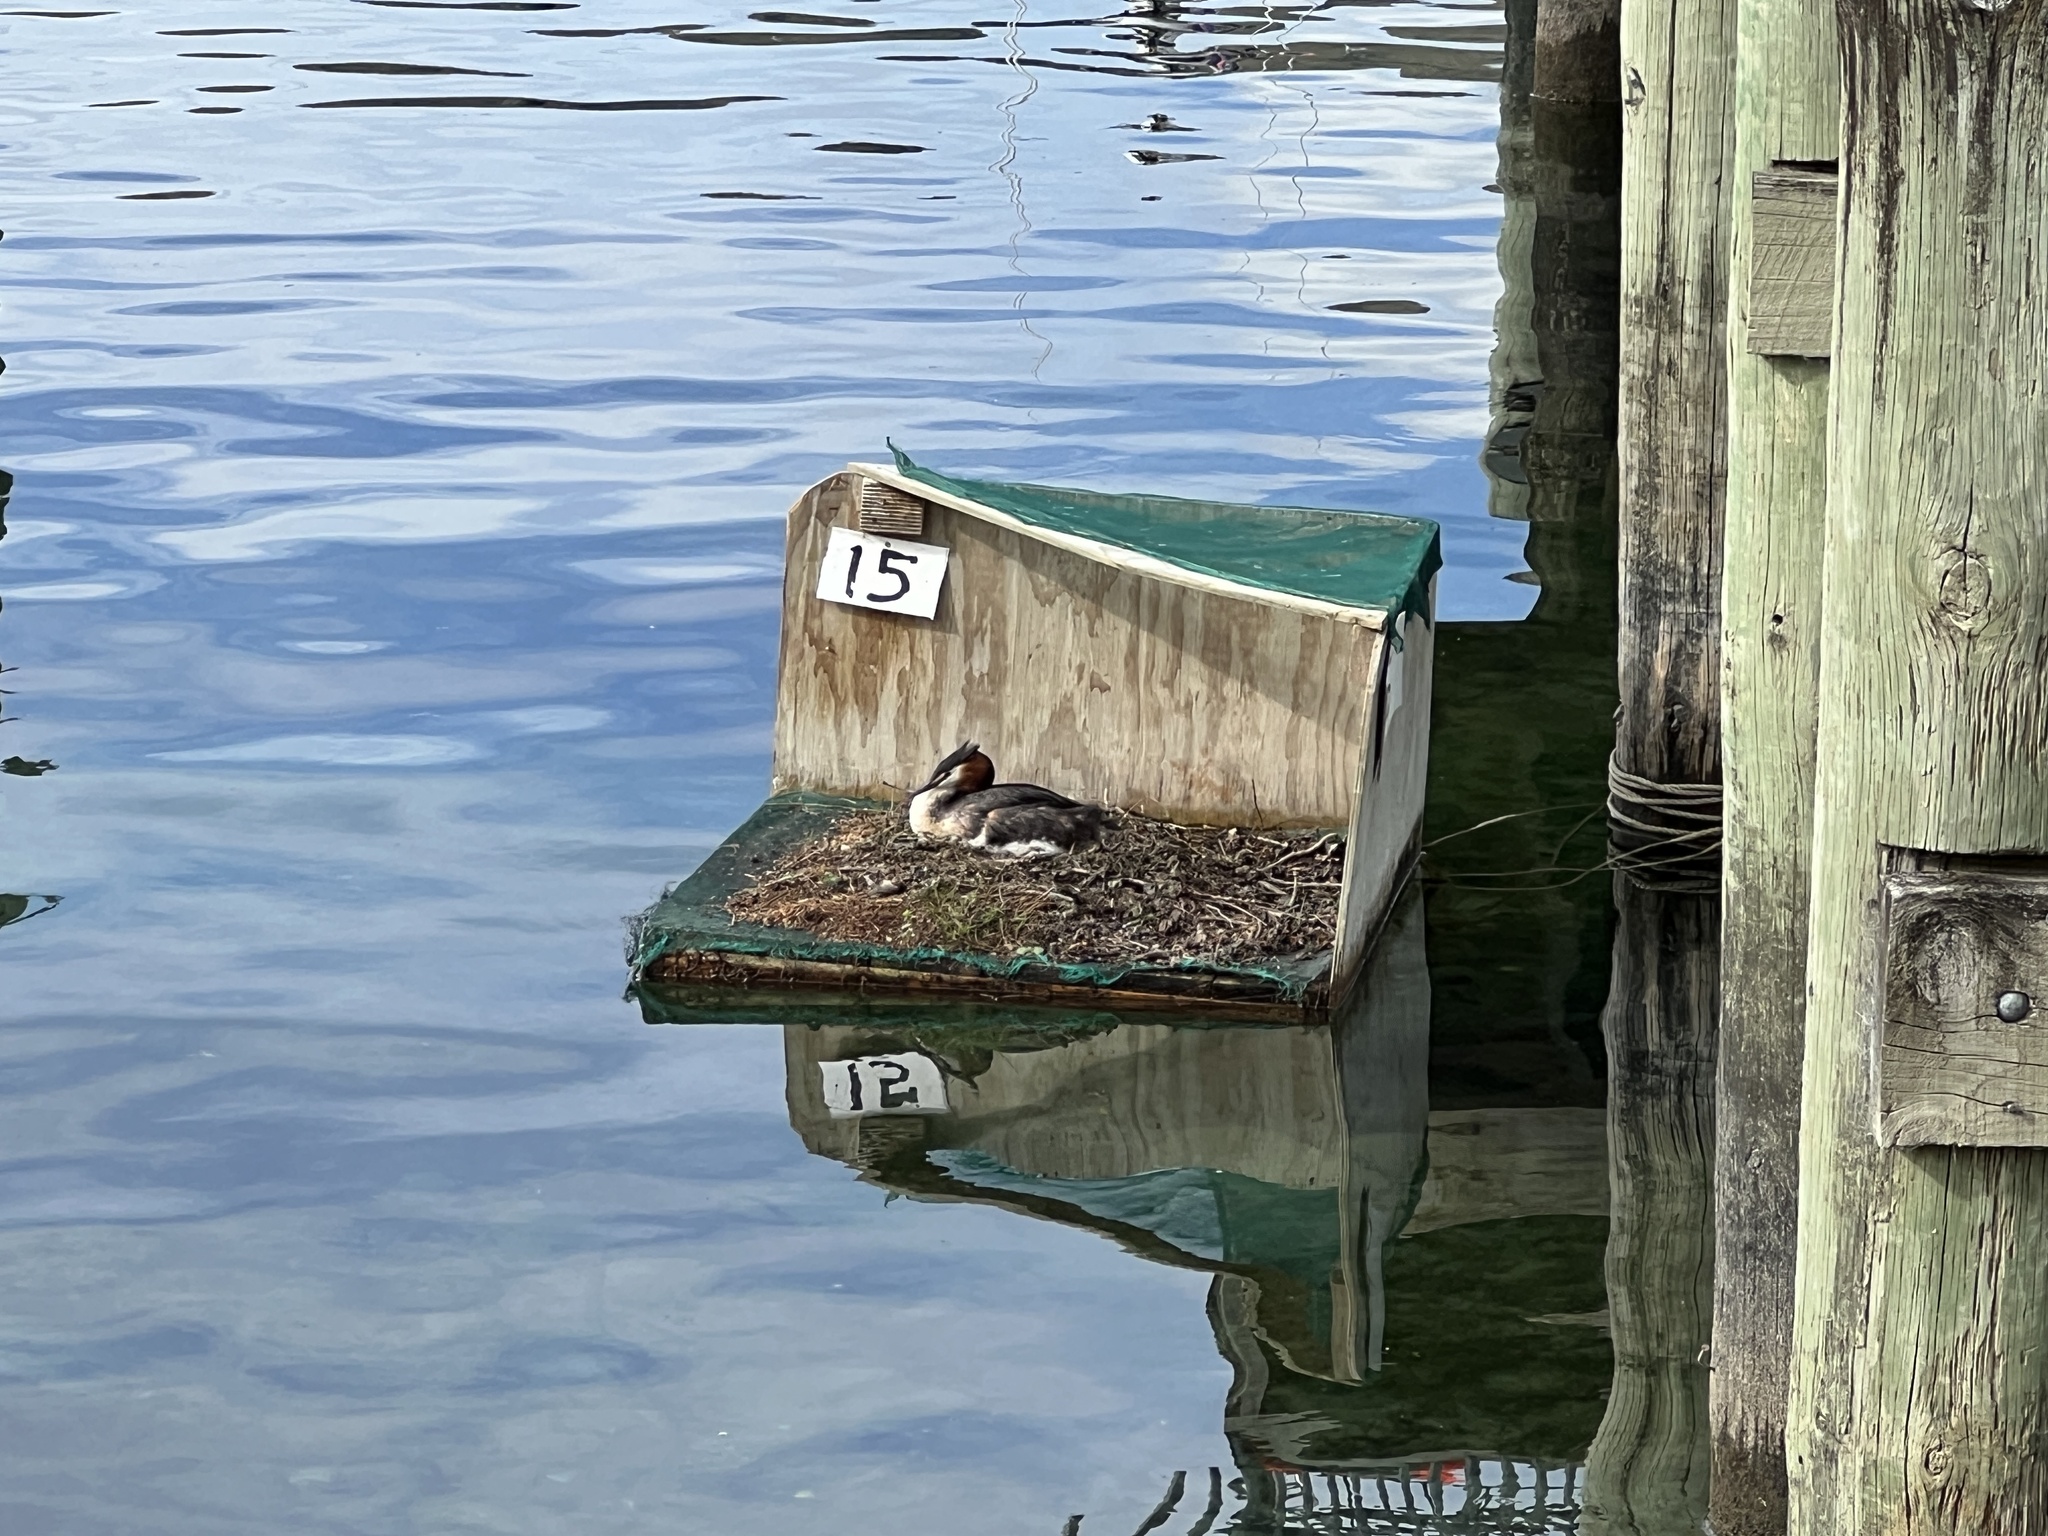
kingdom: Animalia
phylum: Chordata
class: Aves
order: Podicipediformes
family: Podicipedidae
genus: Podiceps
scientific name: Podiceps cristatus
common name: Great crested grebe
